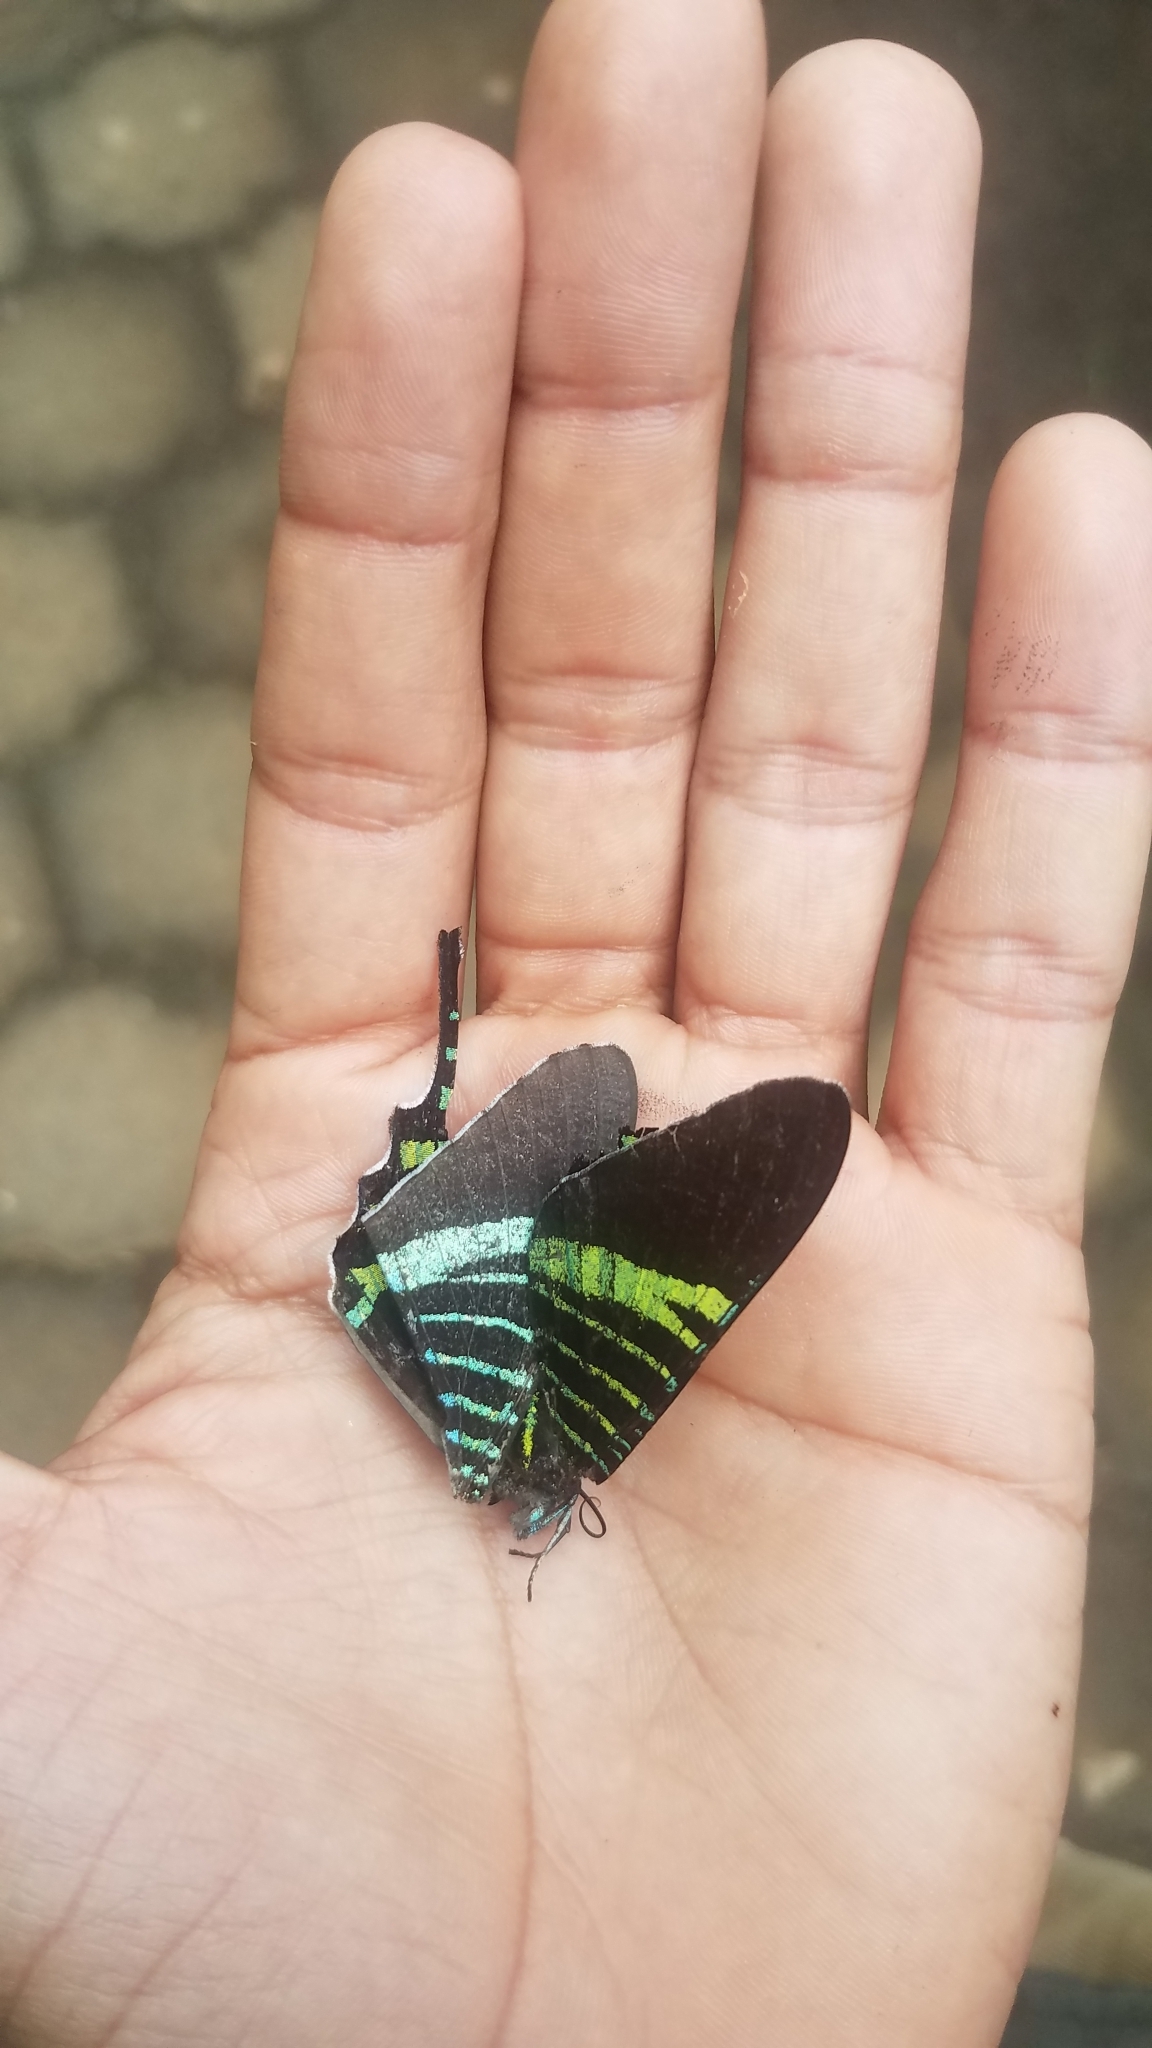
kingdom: Animalia
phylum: Arthropoda
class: Insecta
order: Lepidoptera
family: Uraniidae
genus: Urania
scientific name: Urania fulgens
